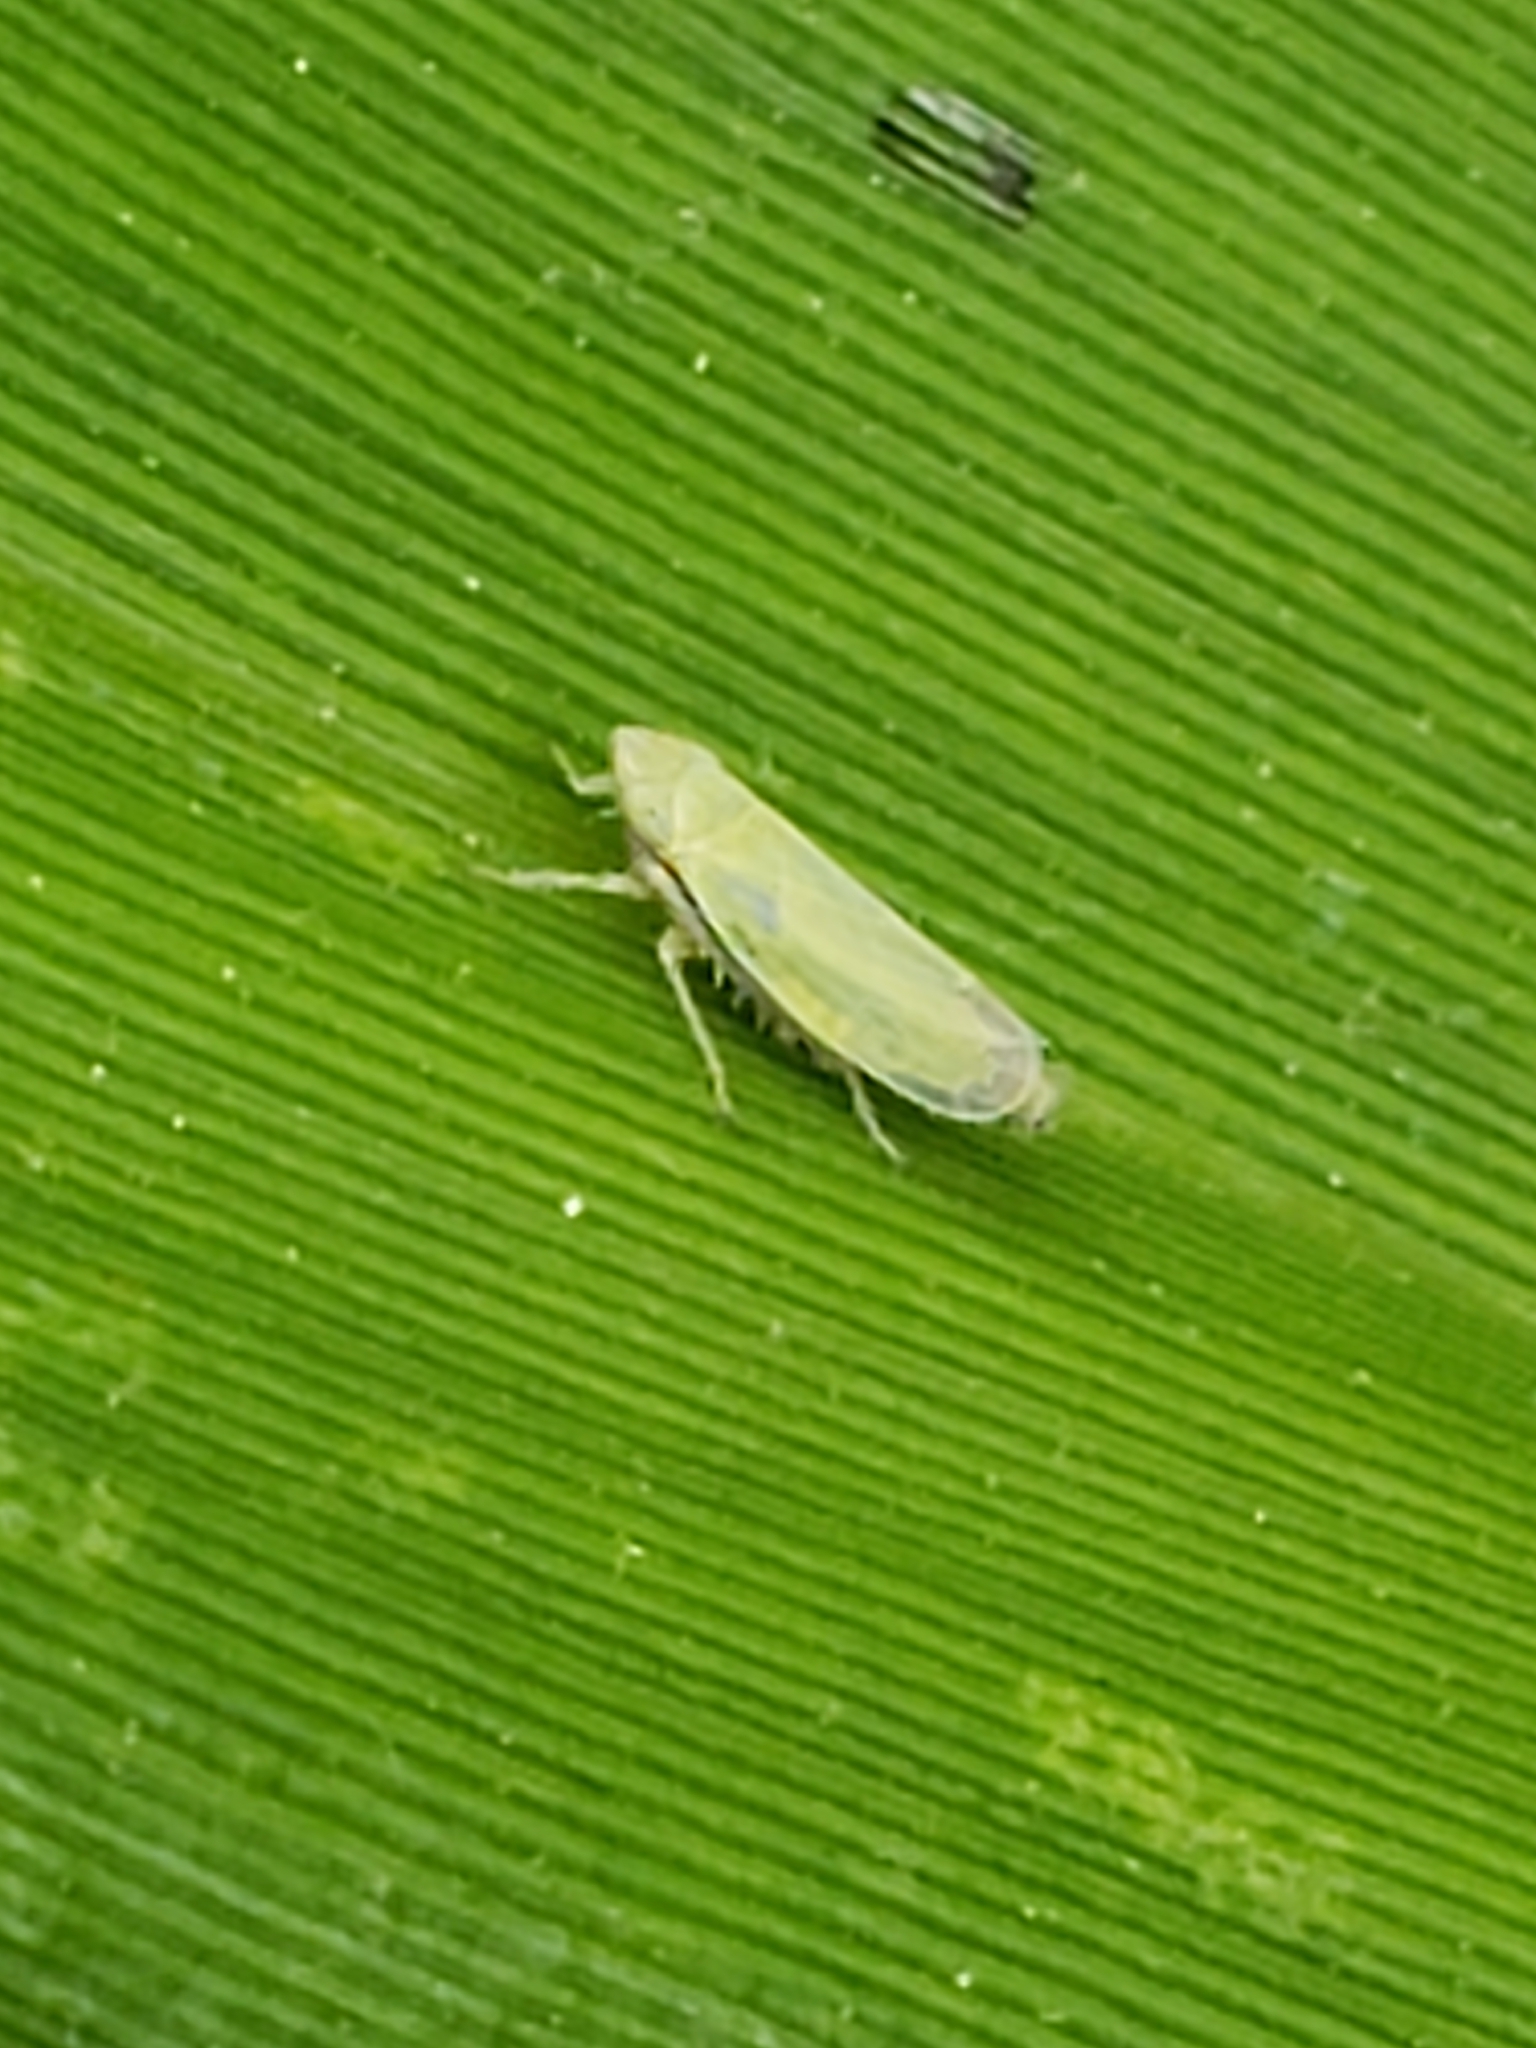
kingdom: Animalia
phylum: Arthropoda
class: Insecta
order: Hemiptera
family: Cicadellidae
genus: Sorhoanus
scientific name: Sorhoanus orientalis
